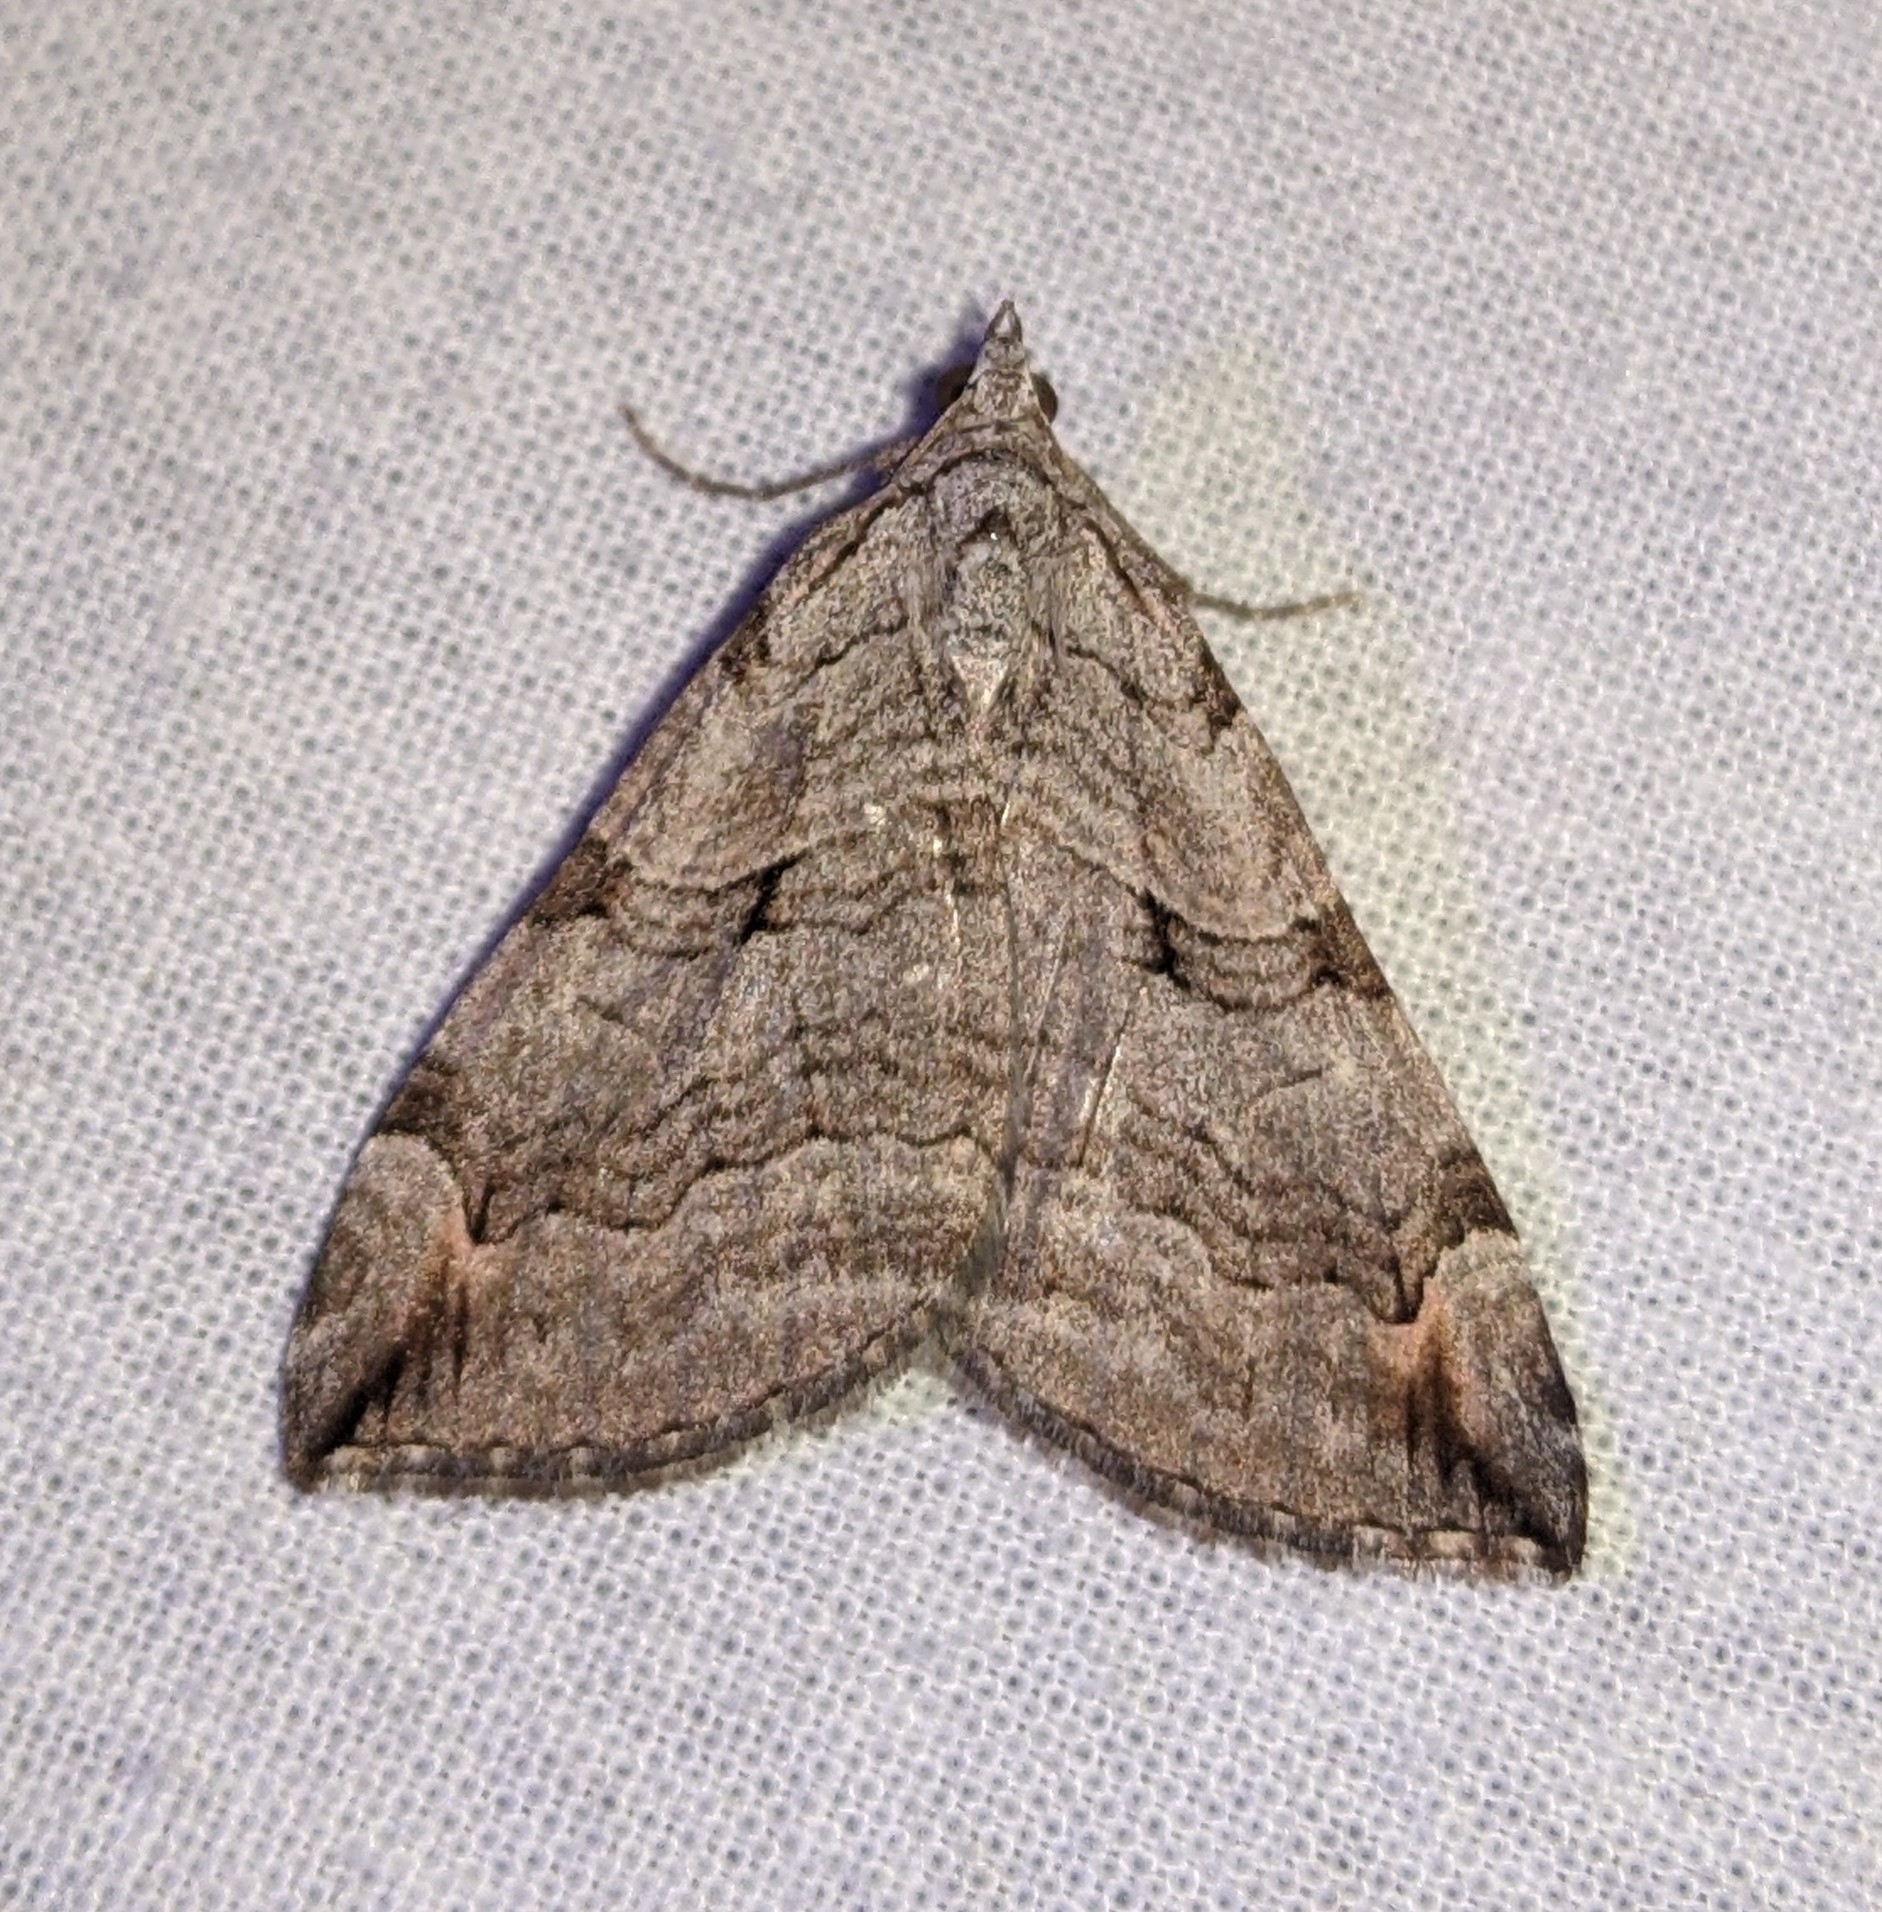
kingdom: Animalia
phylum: Arthropoda
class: Insecta
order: Lepidoptera
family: Geometridae
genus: Aplocera
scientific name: Aplocera plagiata
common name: Treble-bar
